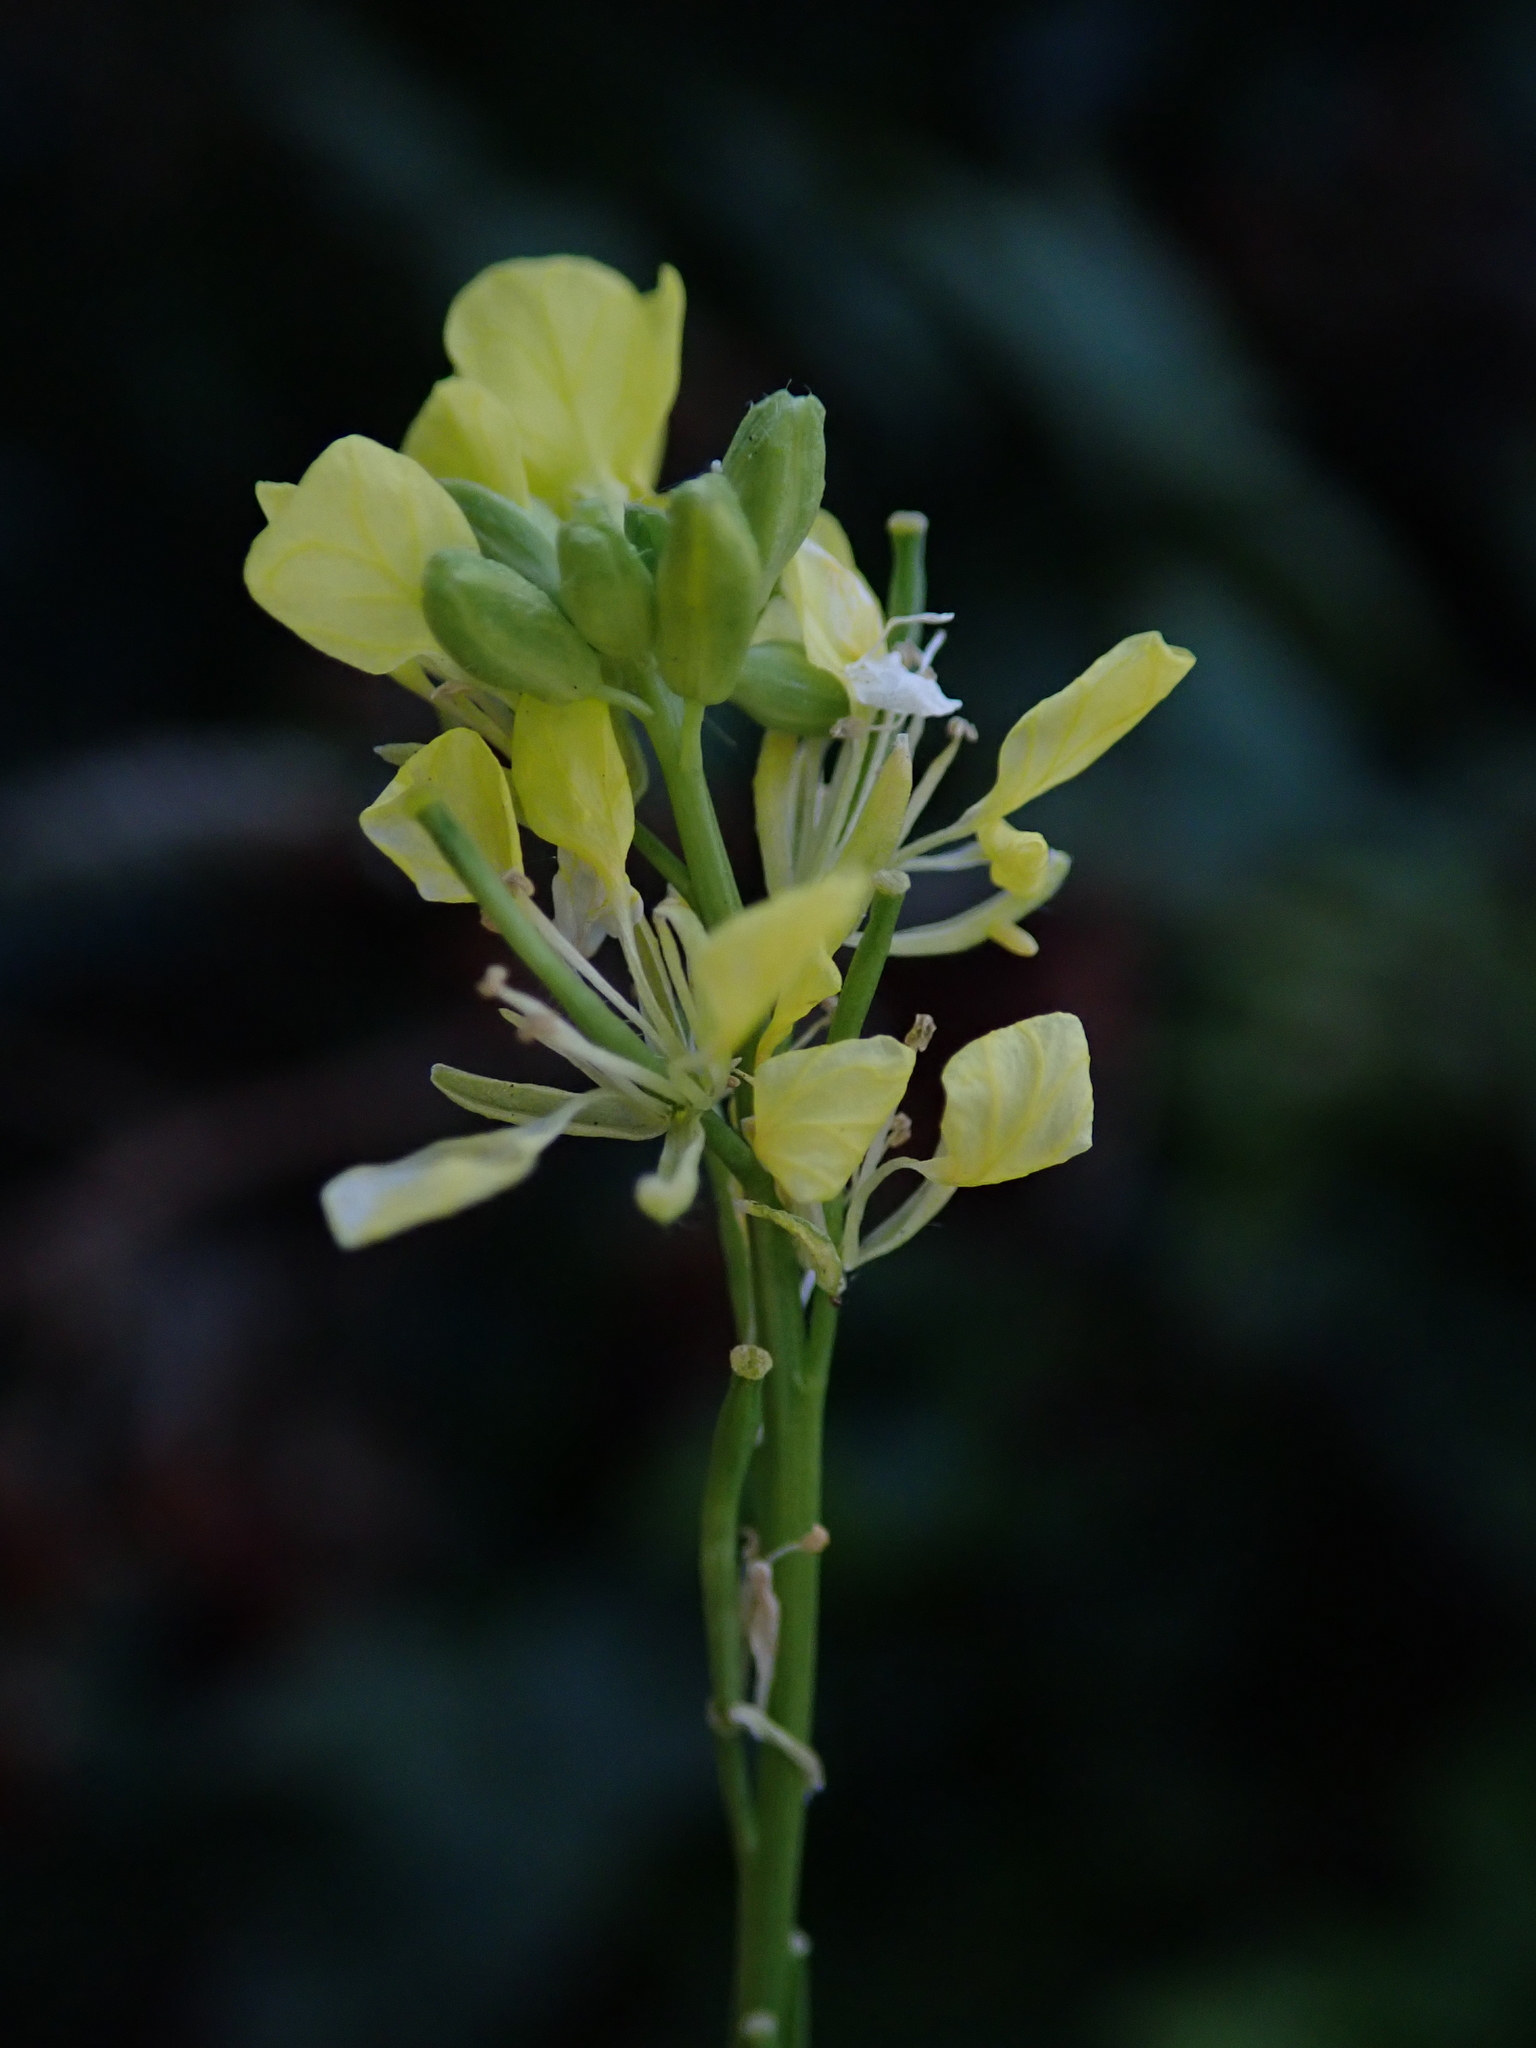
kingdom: Plantae
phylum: Tracheophyta
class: Magnoliopsida
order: Brassicales
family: Brassicaceae
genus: Hirschfeldia
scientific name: Hirschfeldia incana
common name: Hoary mustard
